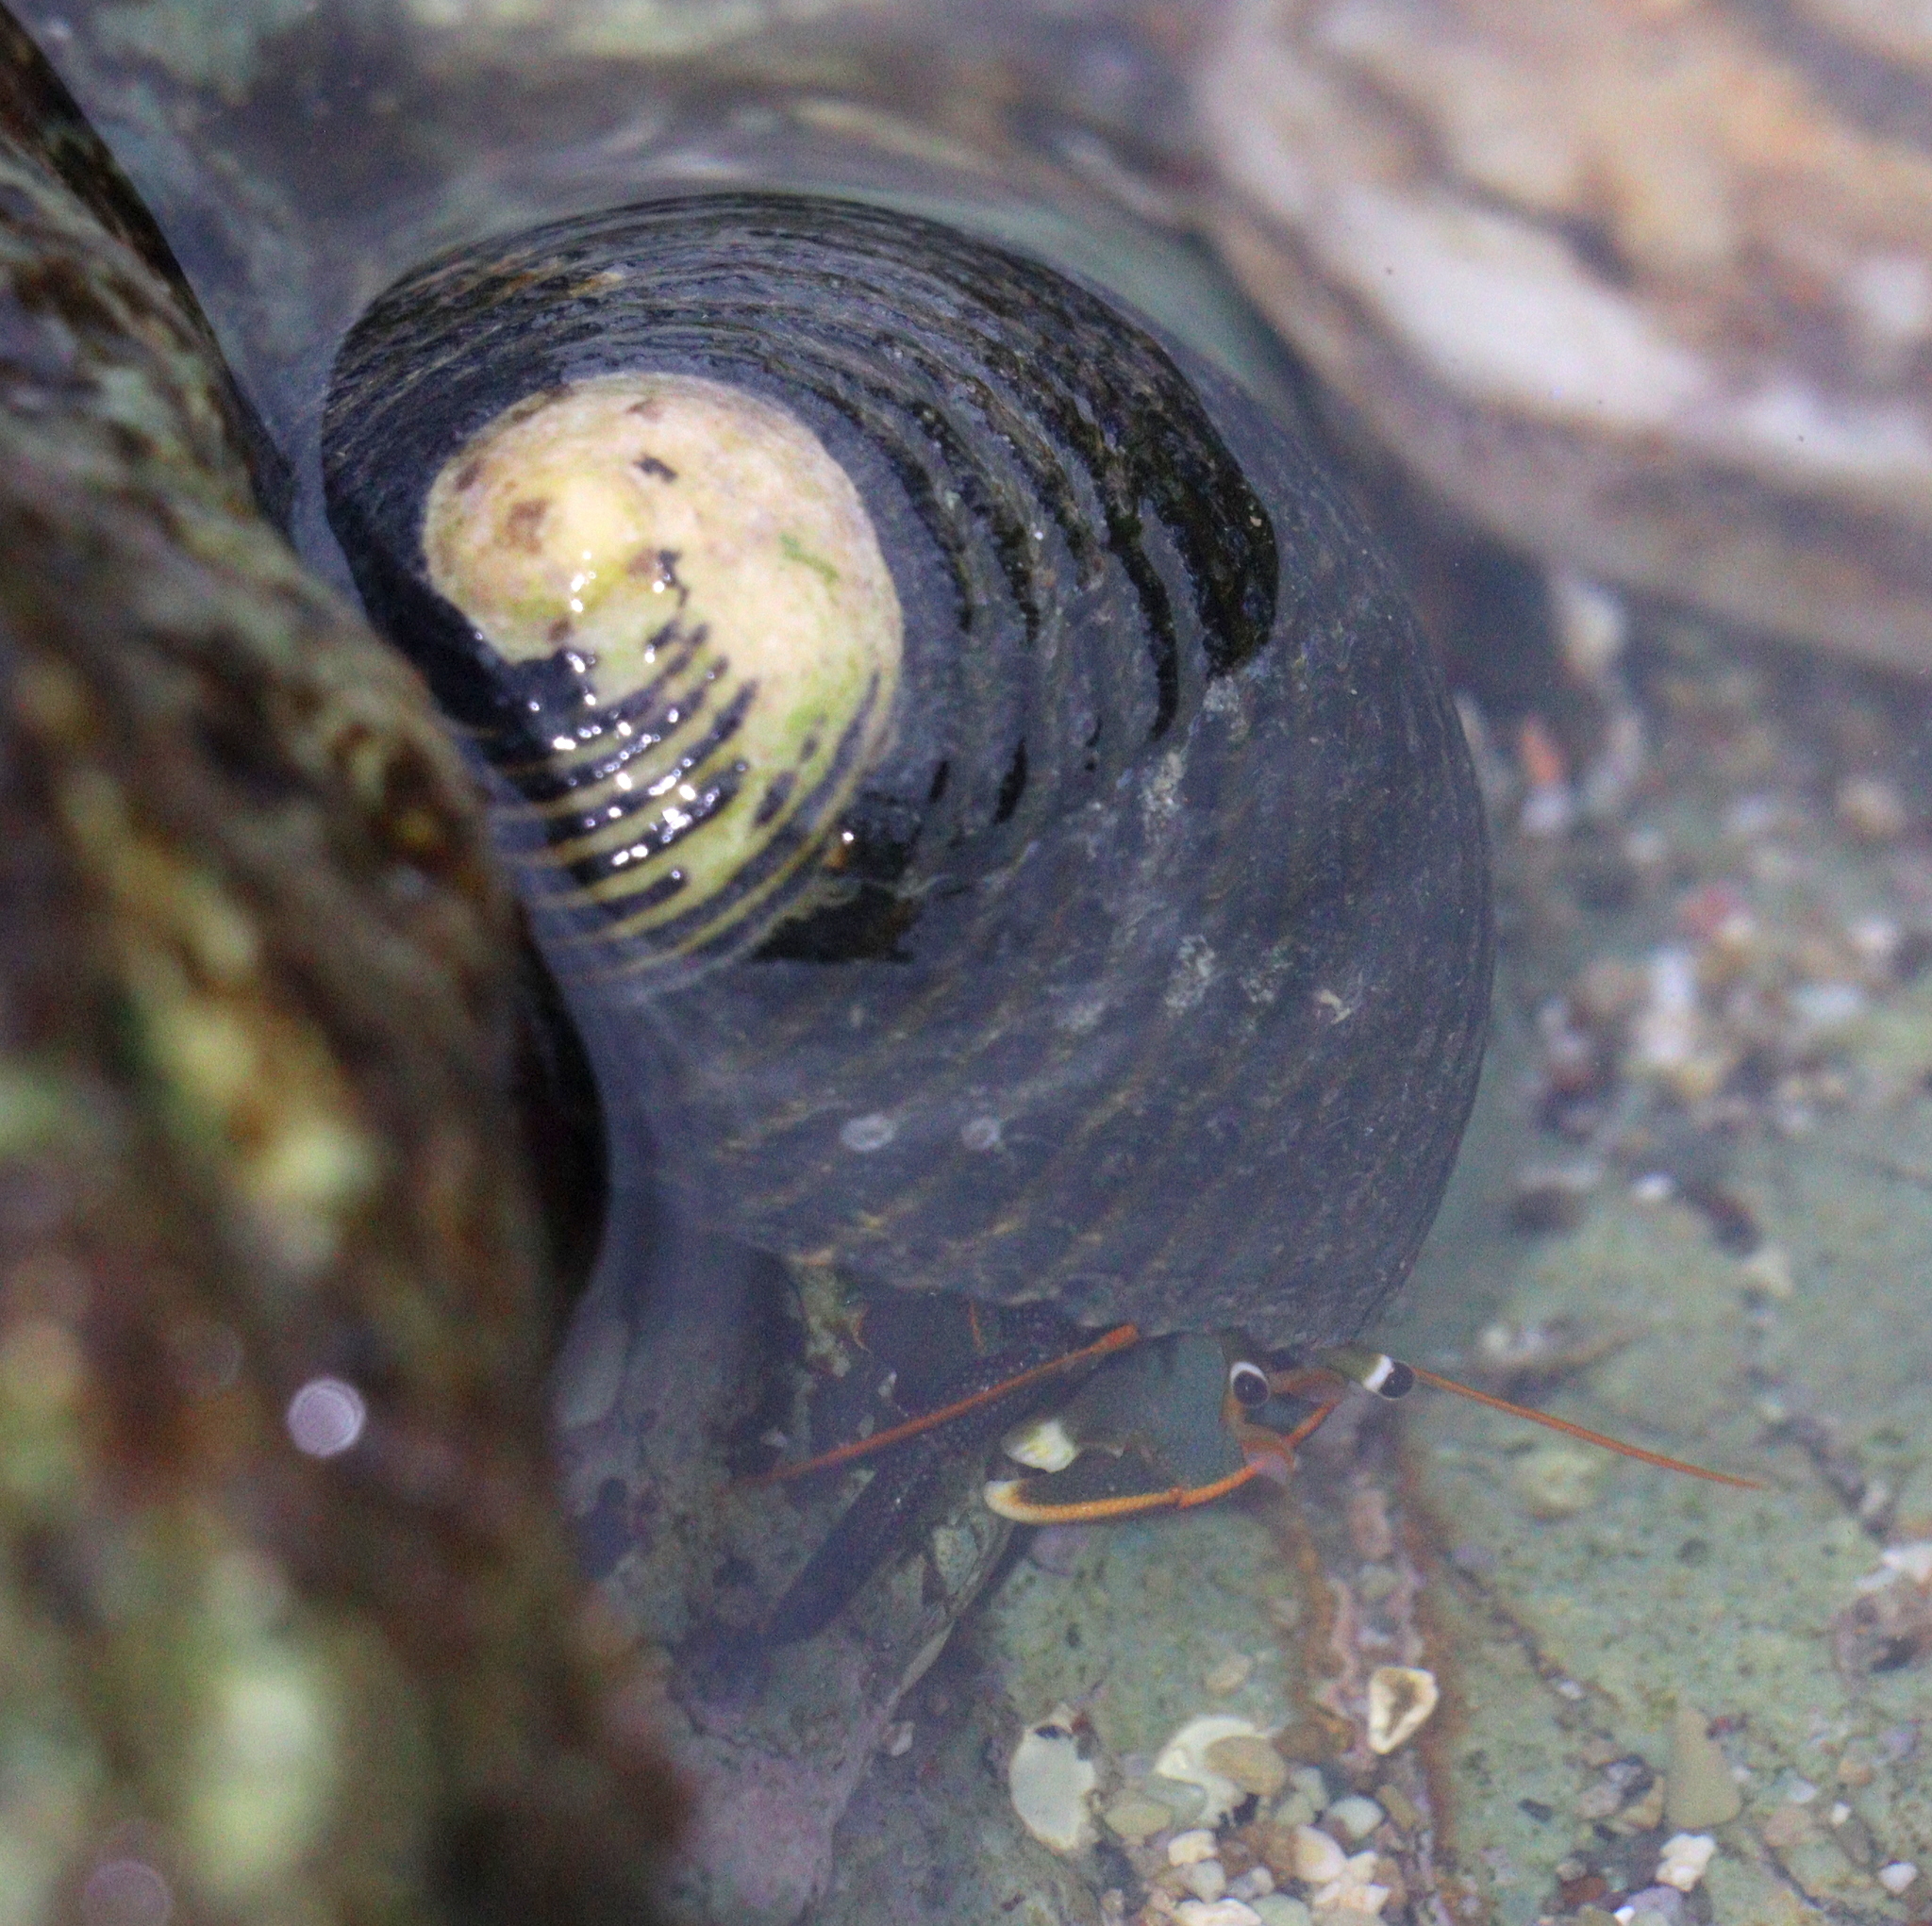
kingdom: Animalia
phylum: Arthropoda
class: Malacostraca
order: Decapoda
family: Diogenidae
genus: Calcinus
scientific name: Calcinus obscurus
